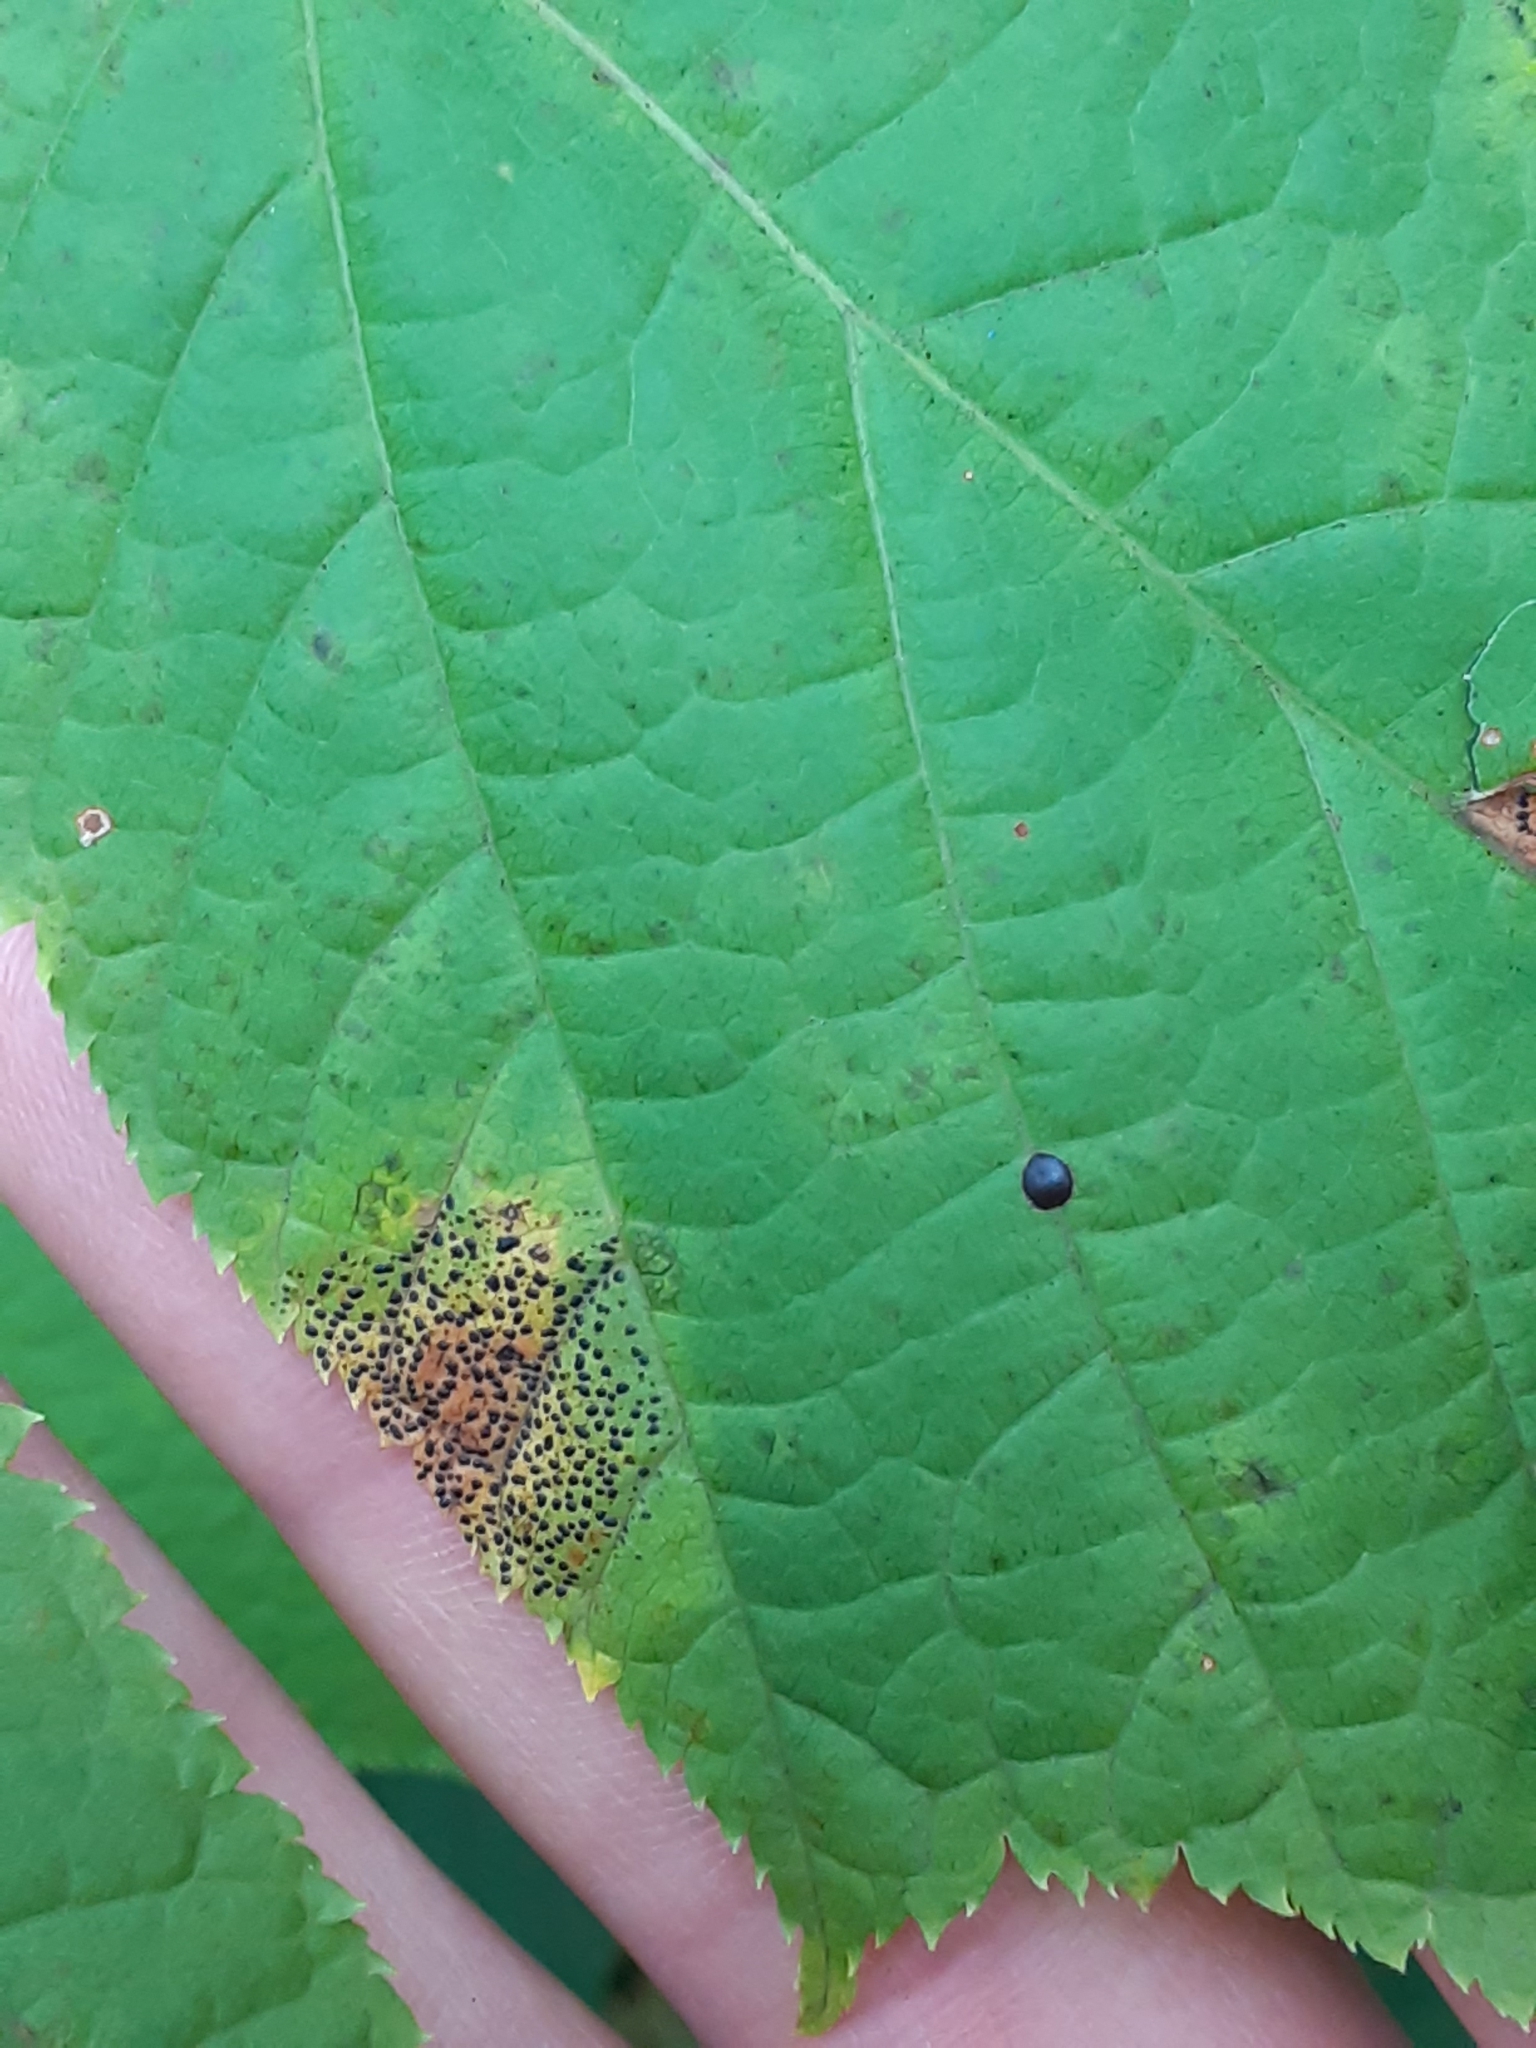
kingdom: Fungi
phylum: Ascomycota
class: Leotiomycetes
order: Rhytismatales
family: Rhytismataceae
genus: Rhytisma
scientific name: Rhytisma punctatum
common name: Speckled tar spot
